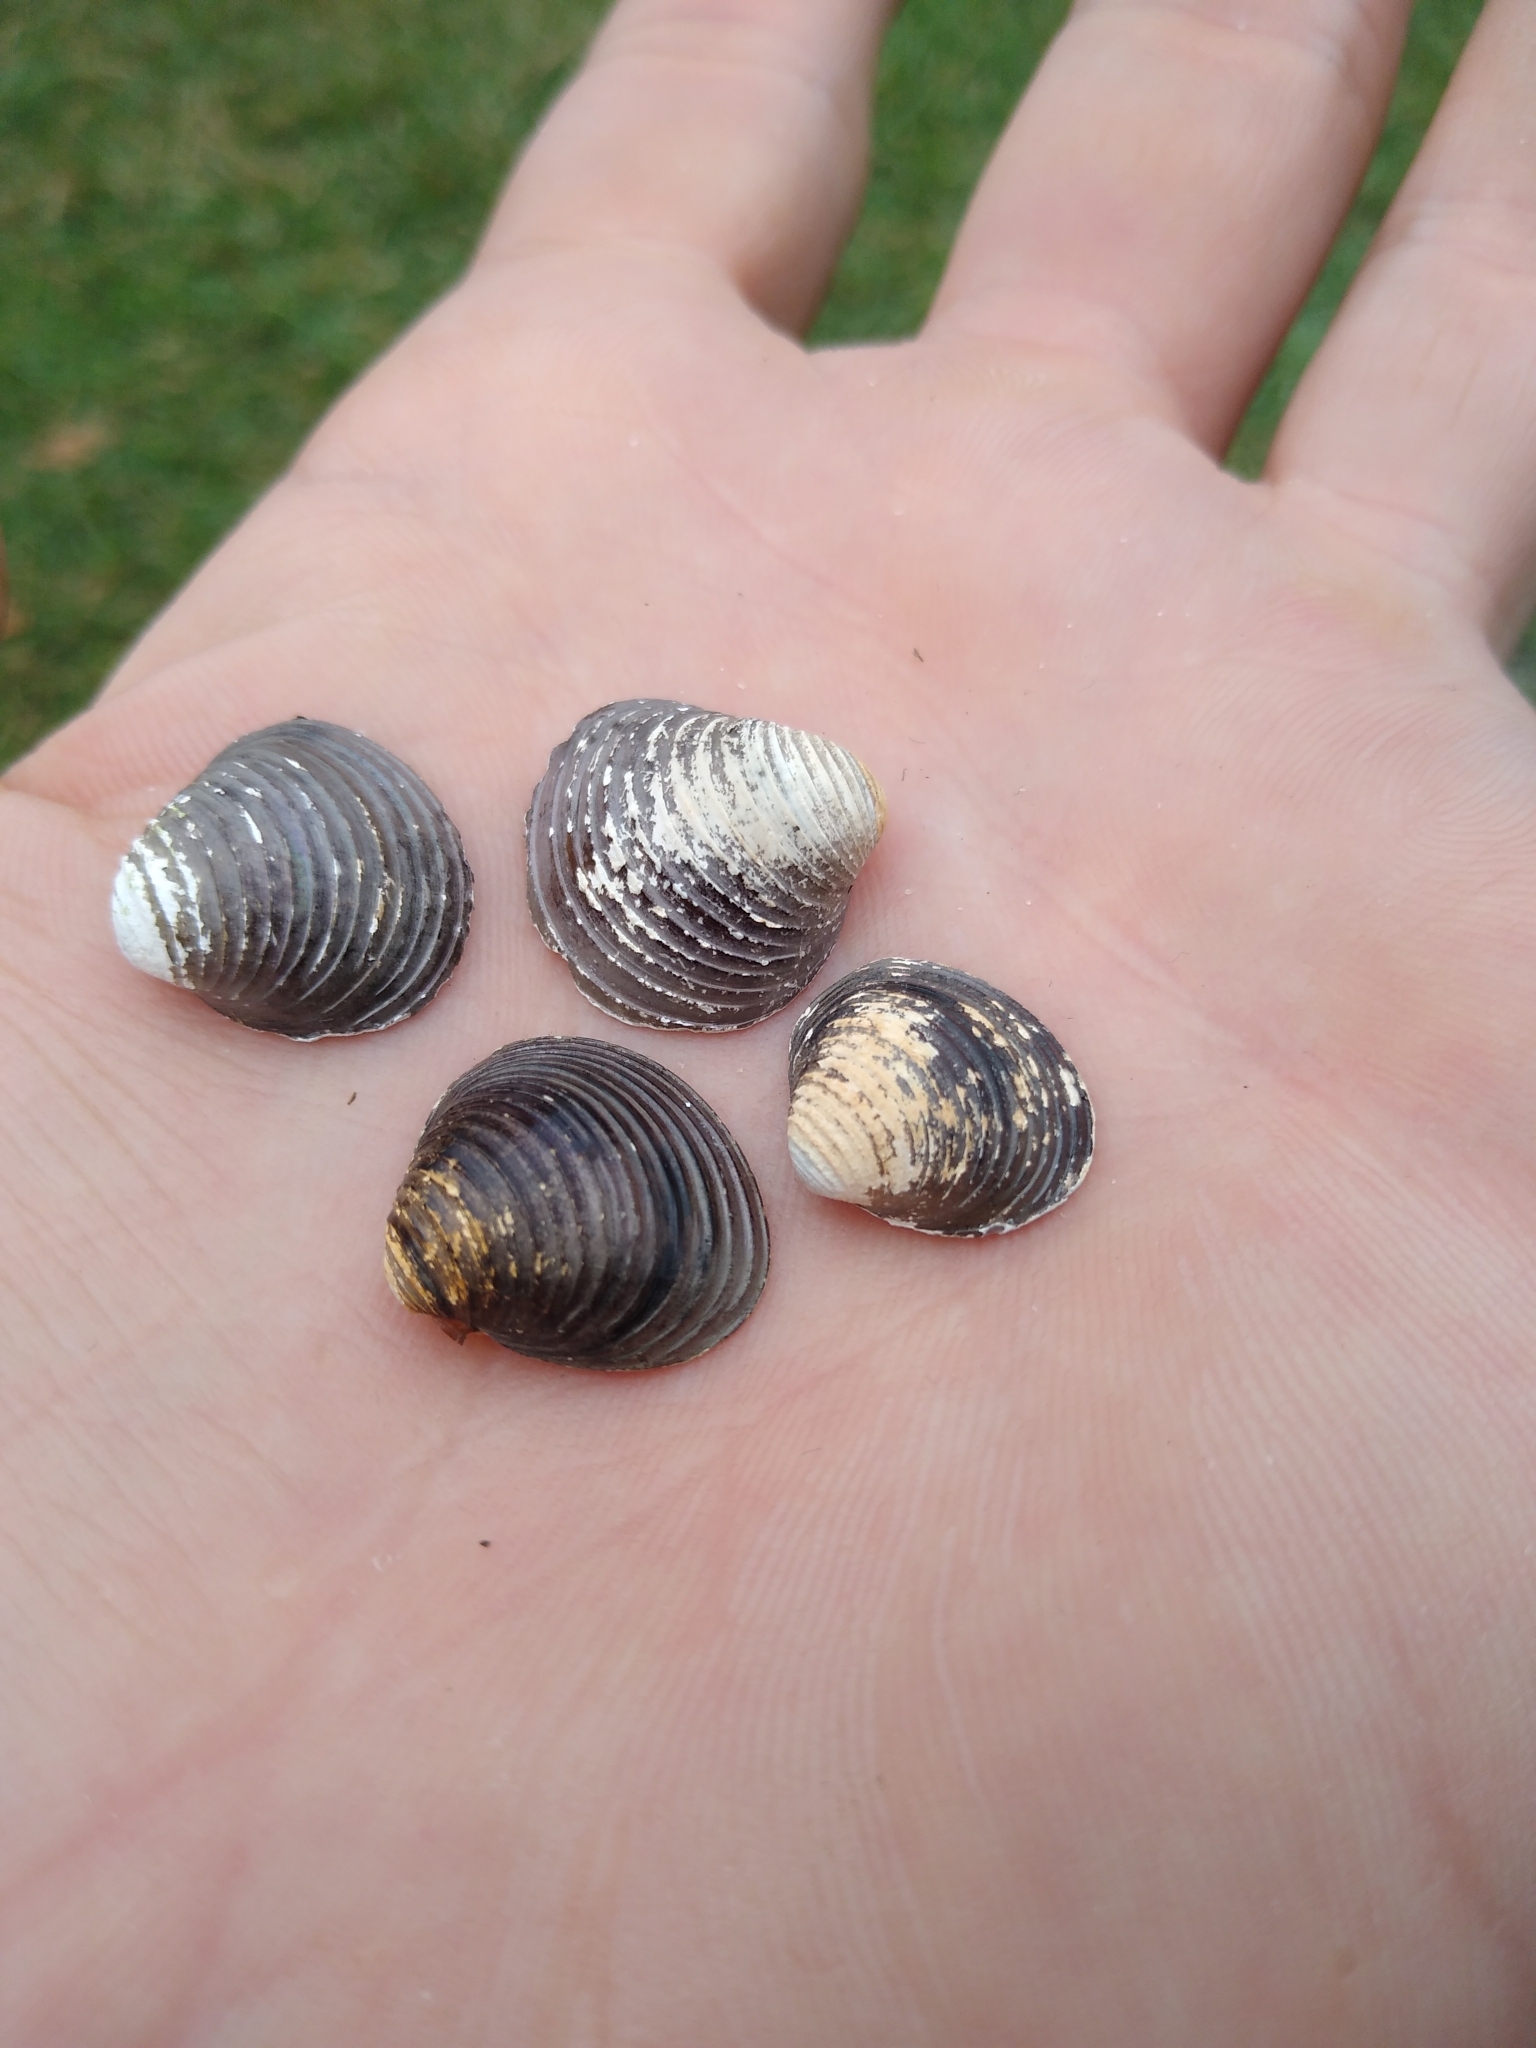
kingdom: Animalia
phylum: Mollusca
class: Bivalvia
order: Venerida
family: Cyrenidae
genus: Corbicula
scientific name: Corbicula fluminea
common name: Asian clam
